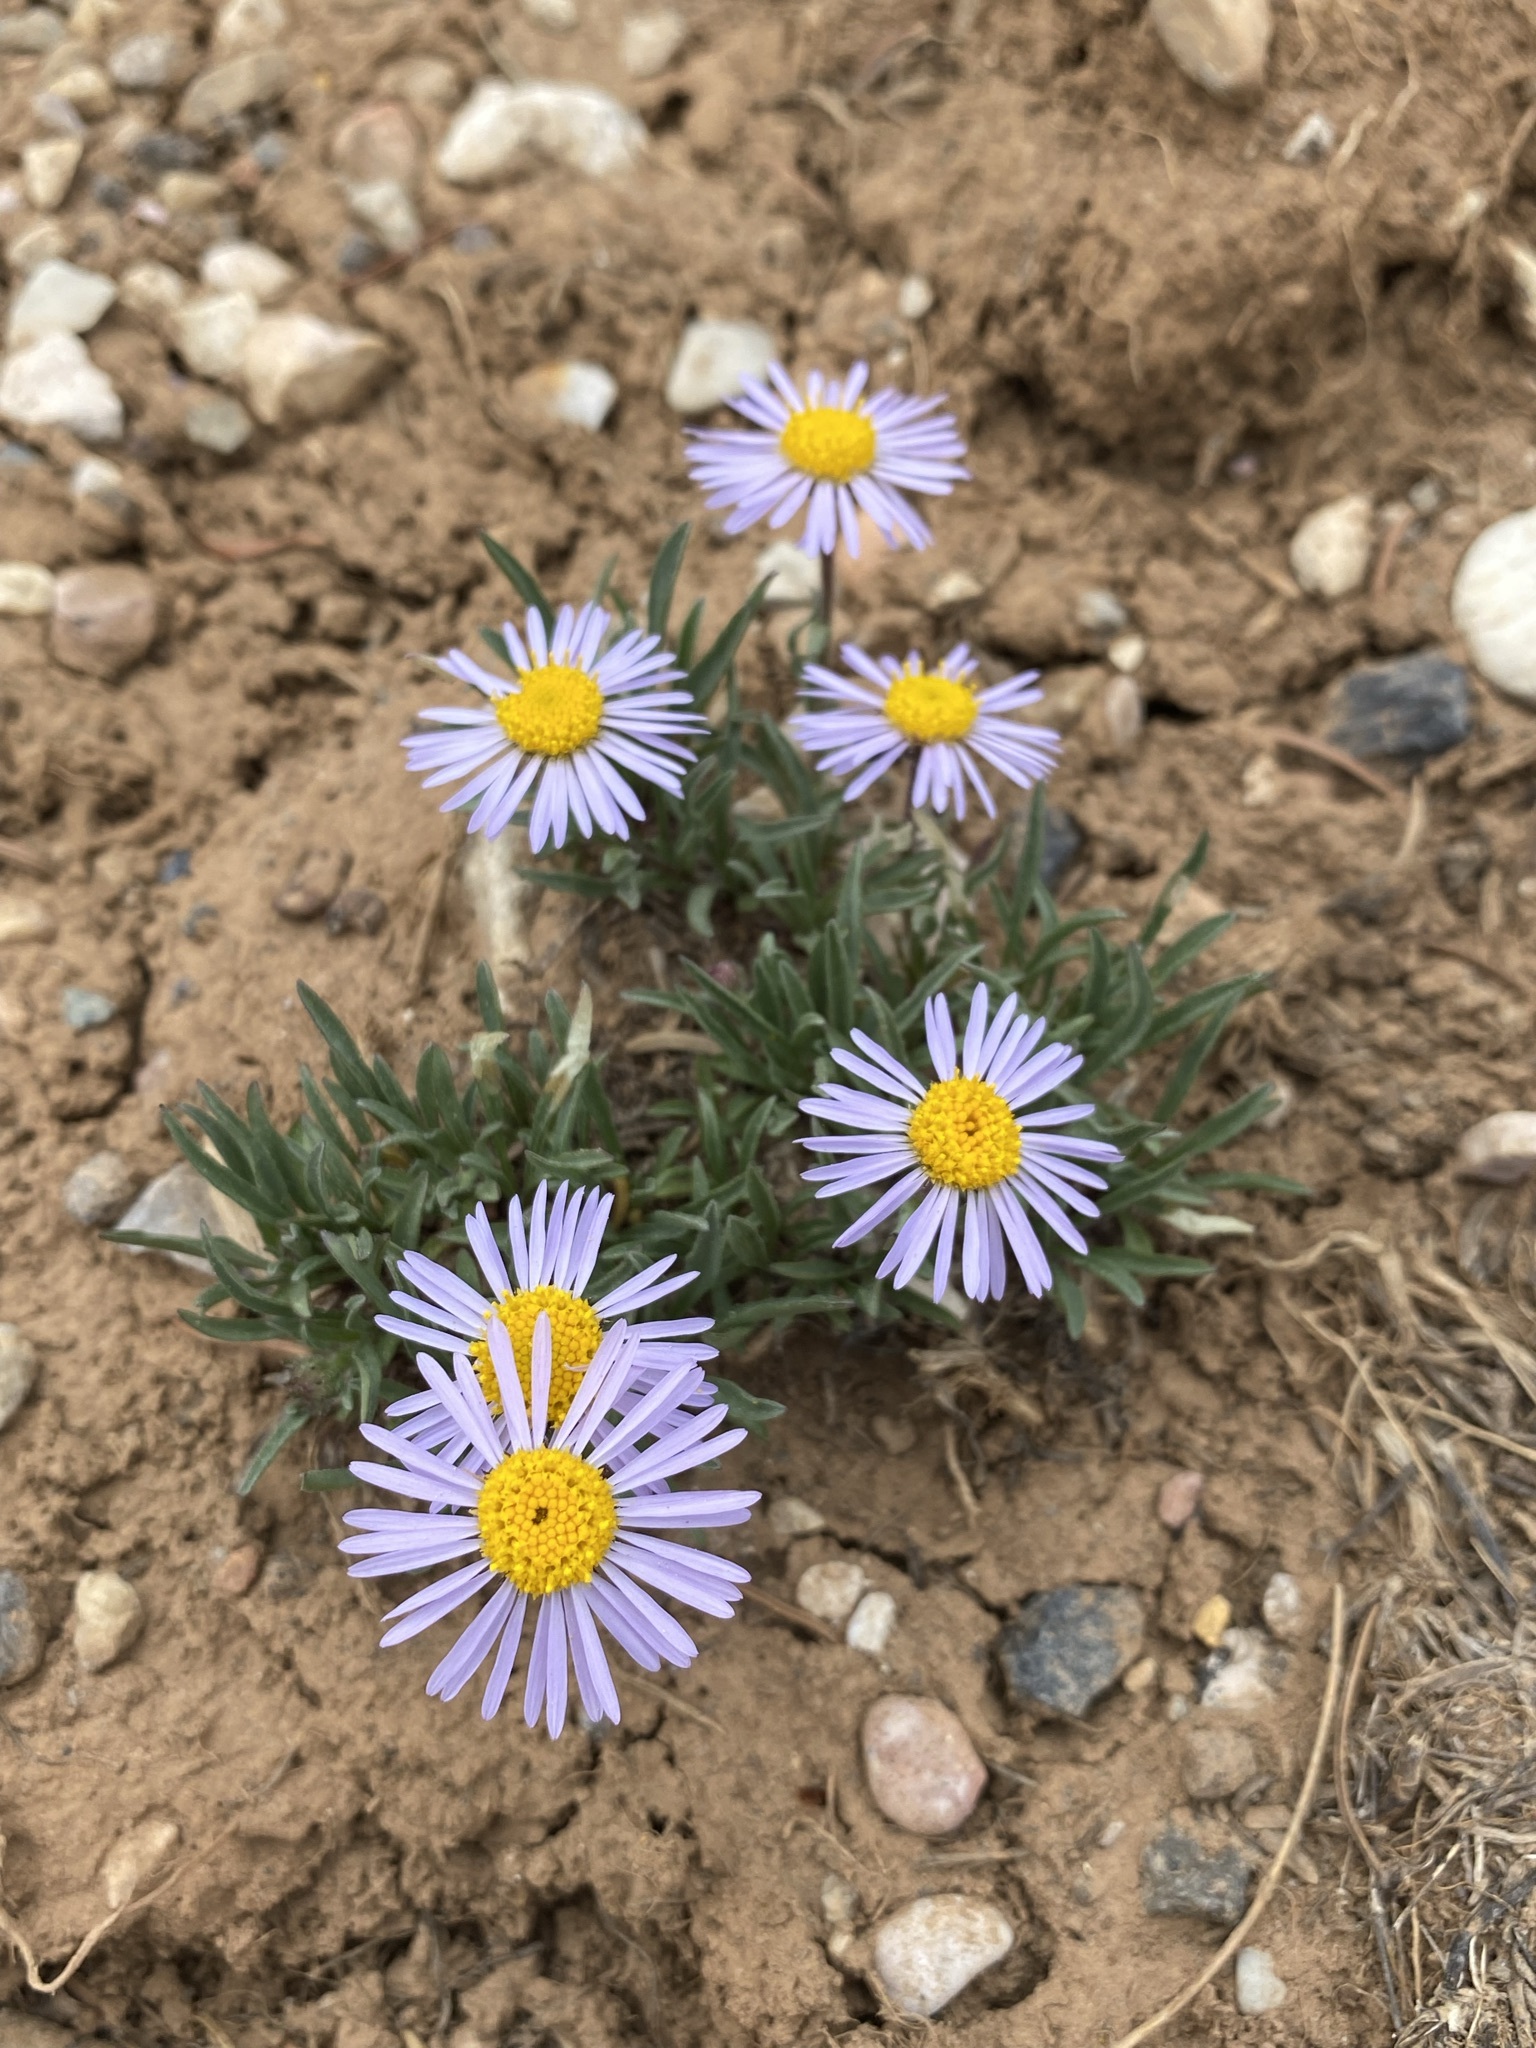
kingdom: Plantae
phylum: Tracheophyta
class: Magnoliopsida
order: Asterales
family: Asteraceae
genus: Erigeron
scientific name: Erigeron ursinus
